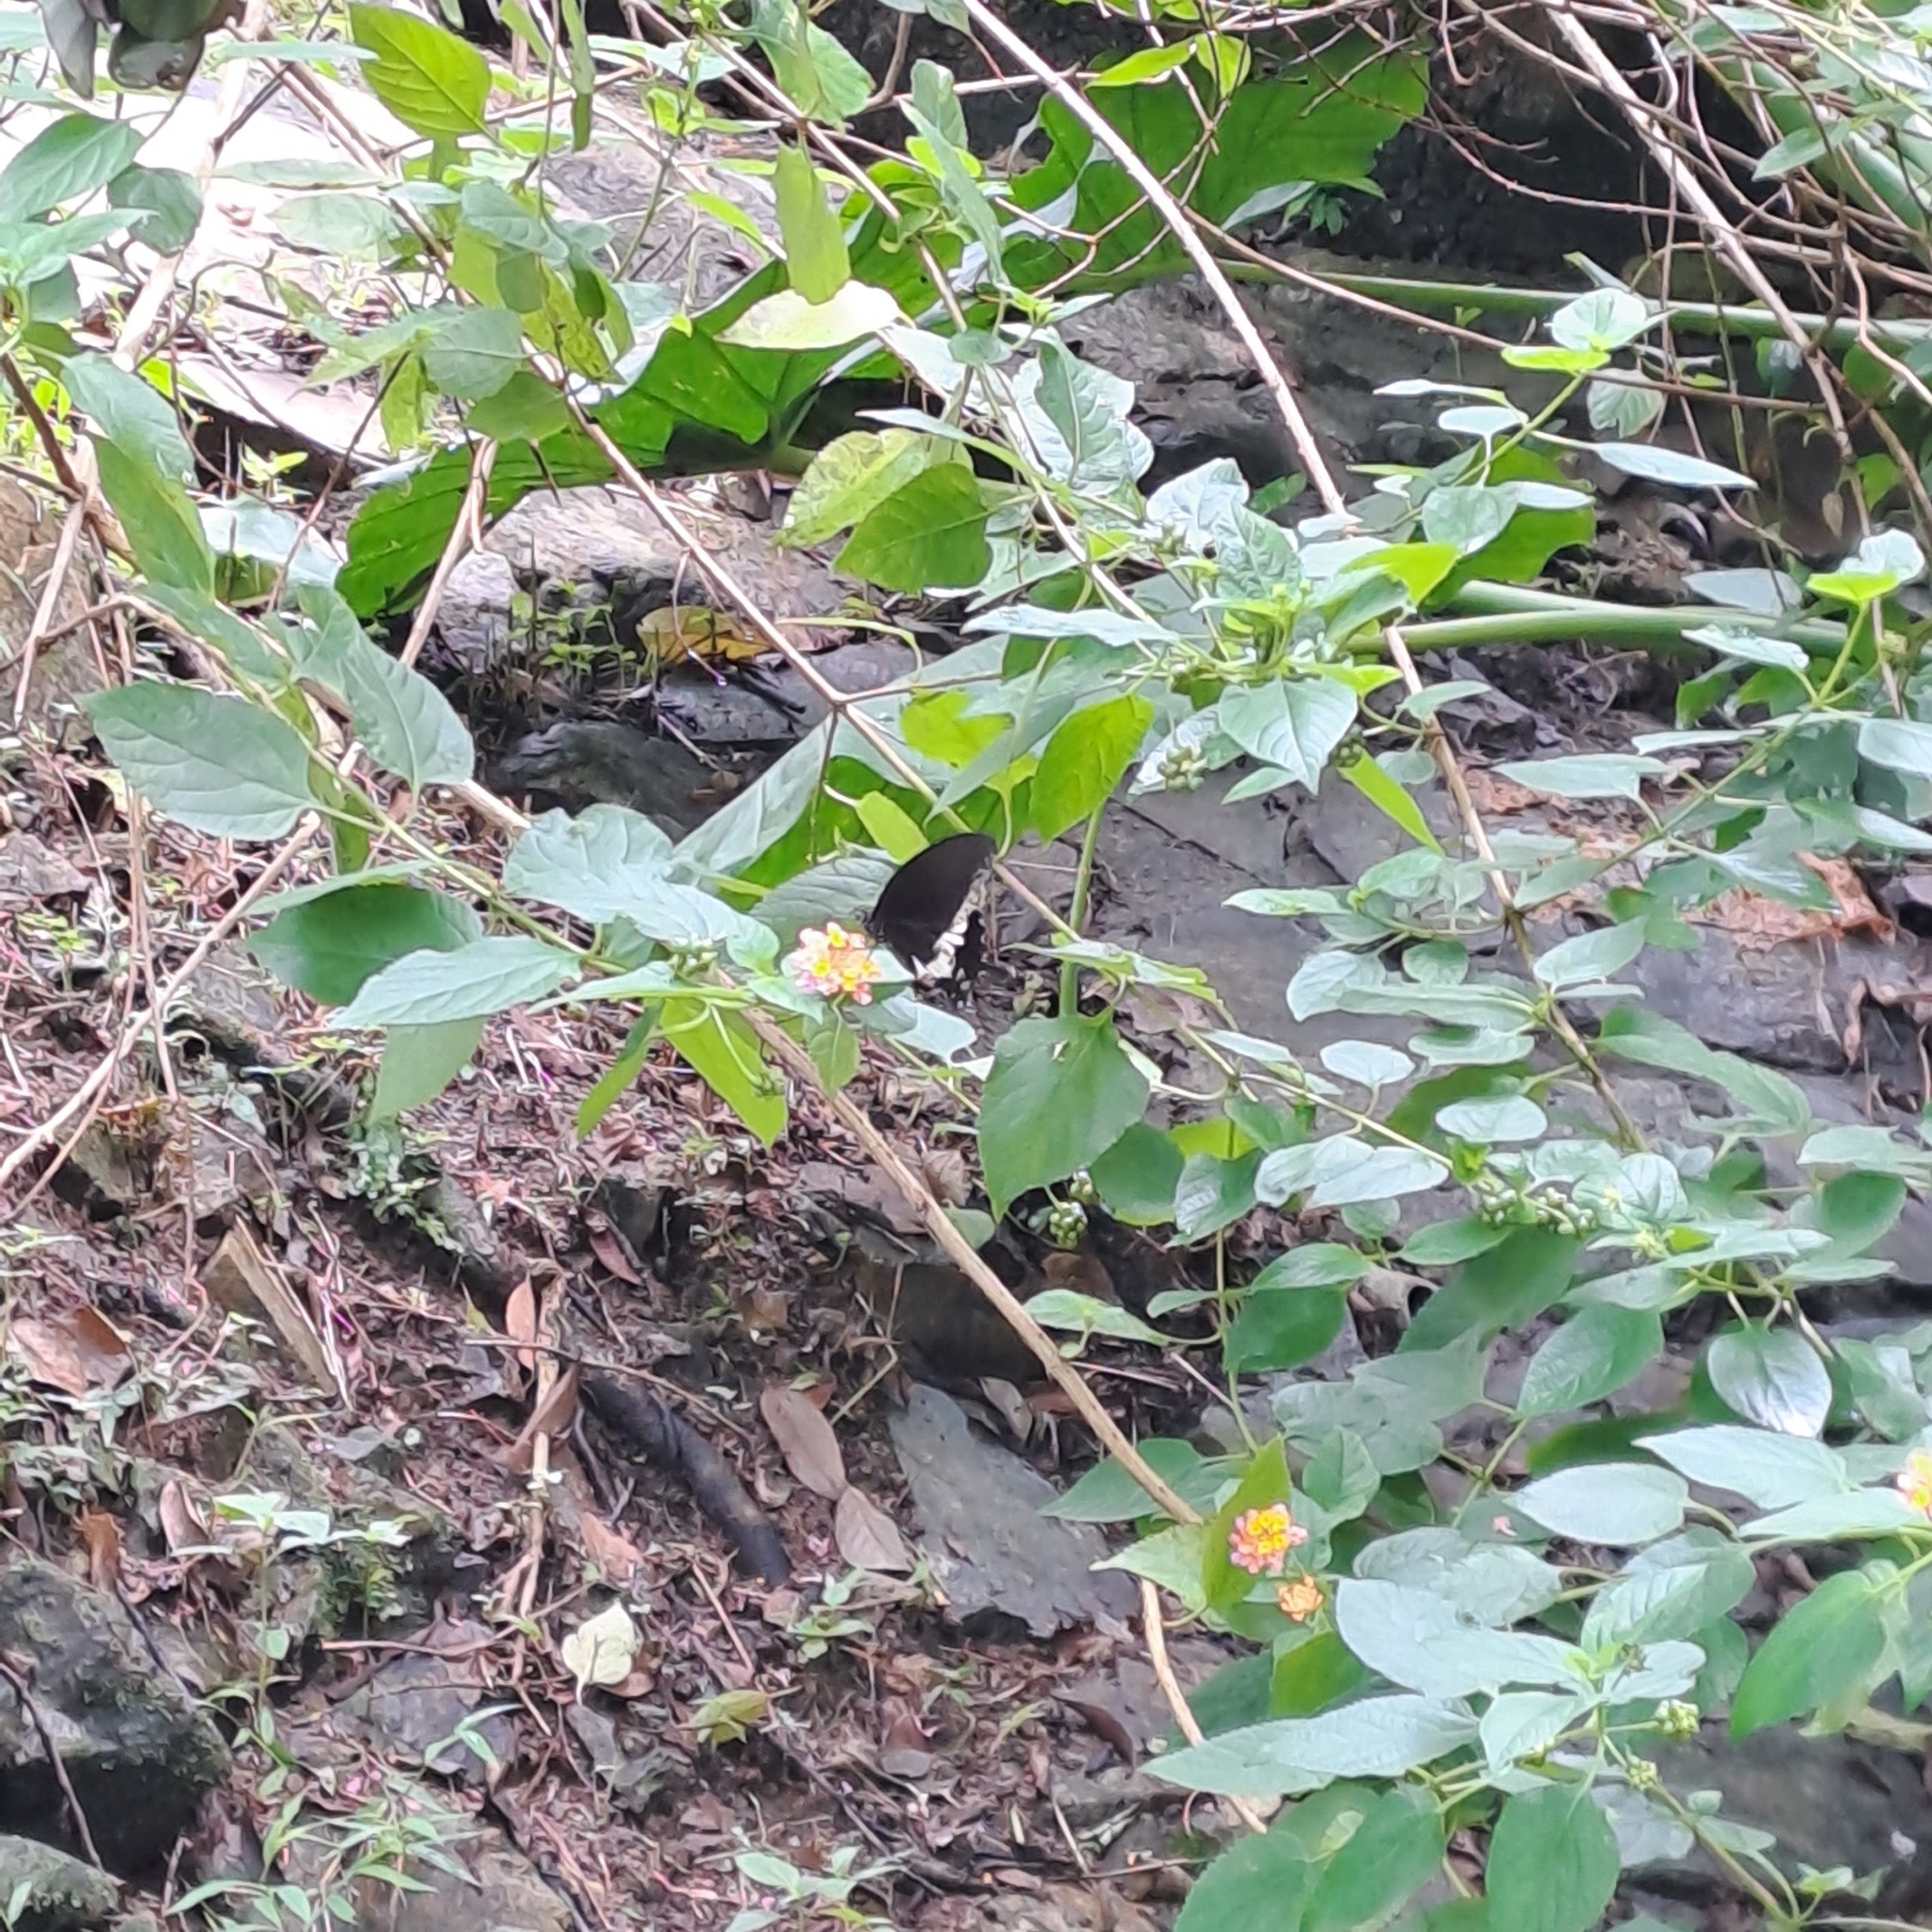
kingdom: Animalia
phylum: Arthropoda
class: Insecta
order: Lepidoptera
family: Papilionidae
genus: Papilio
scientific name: Papilio polytes
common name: Common mormon
